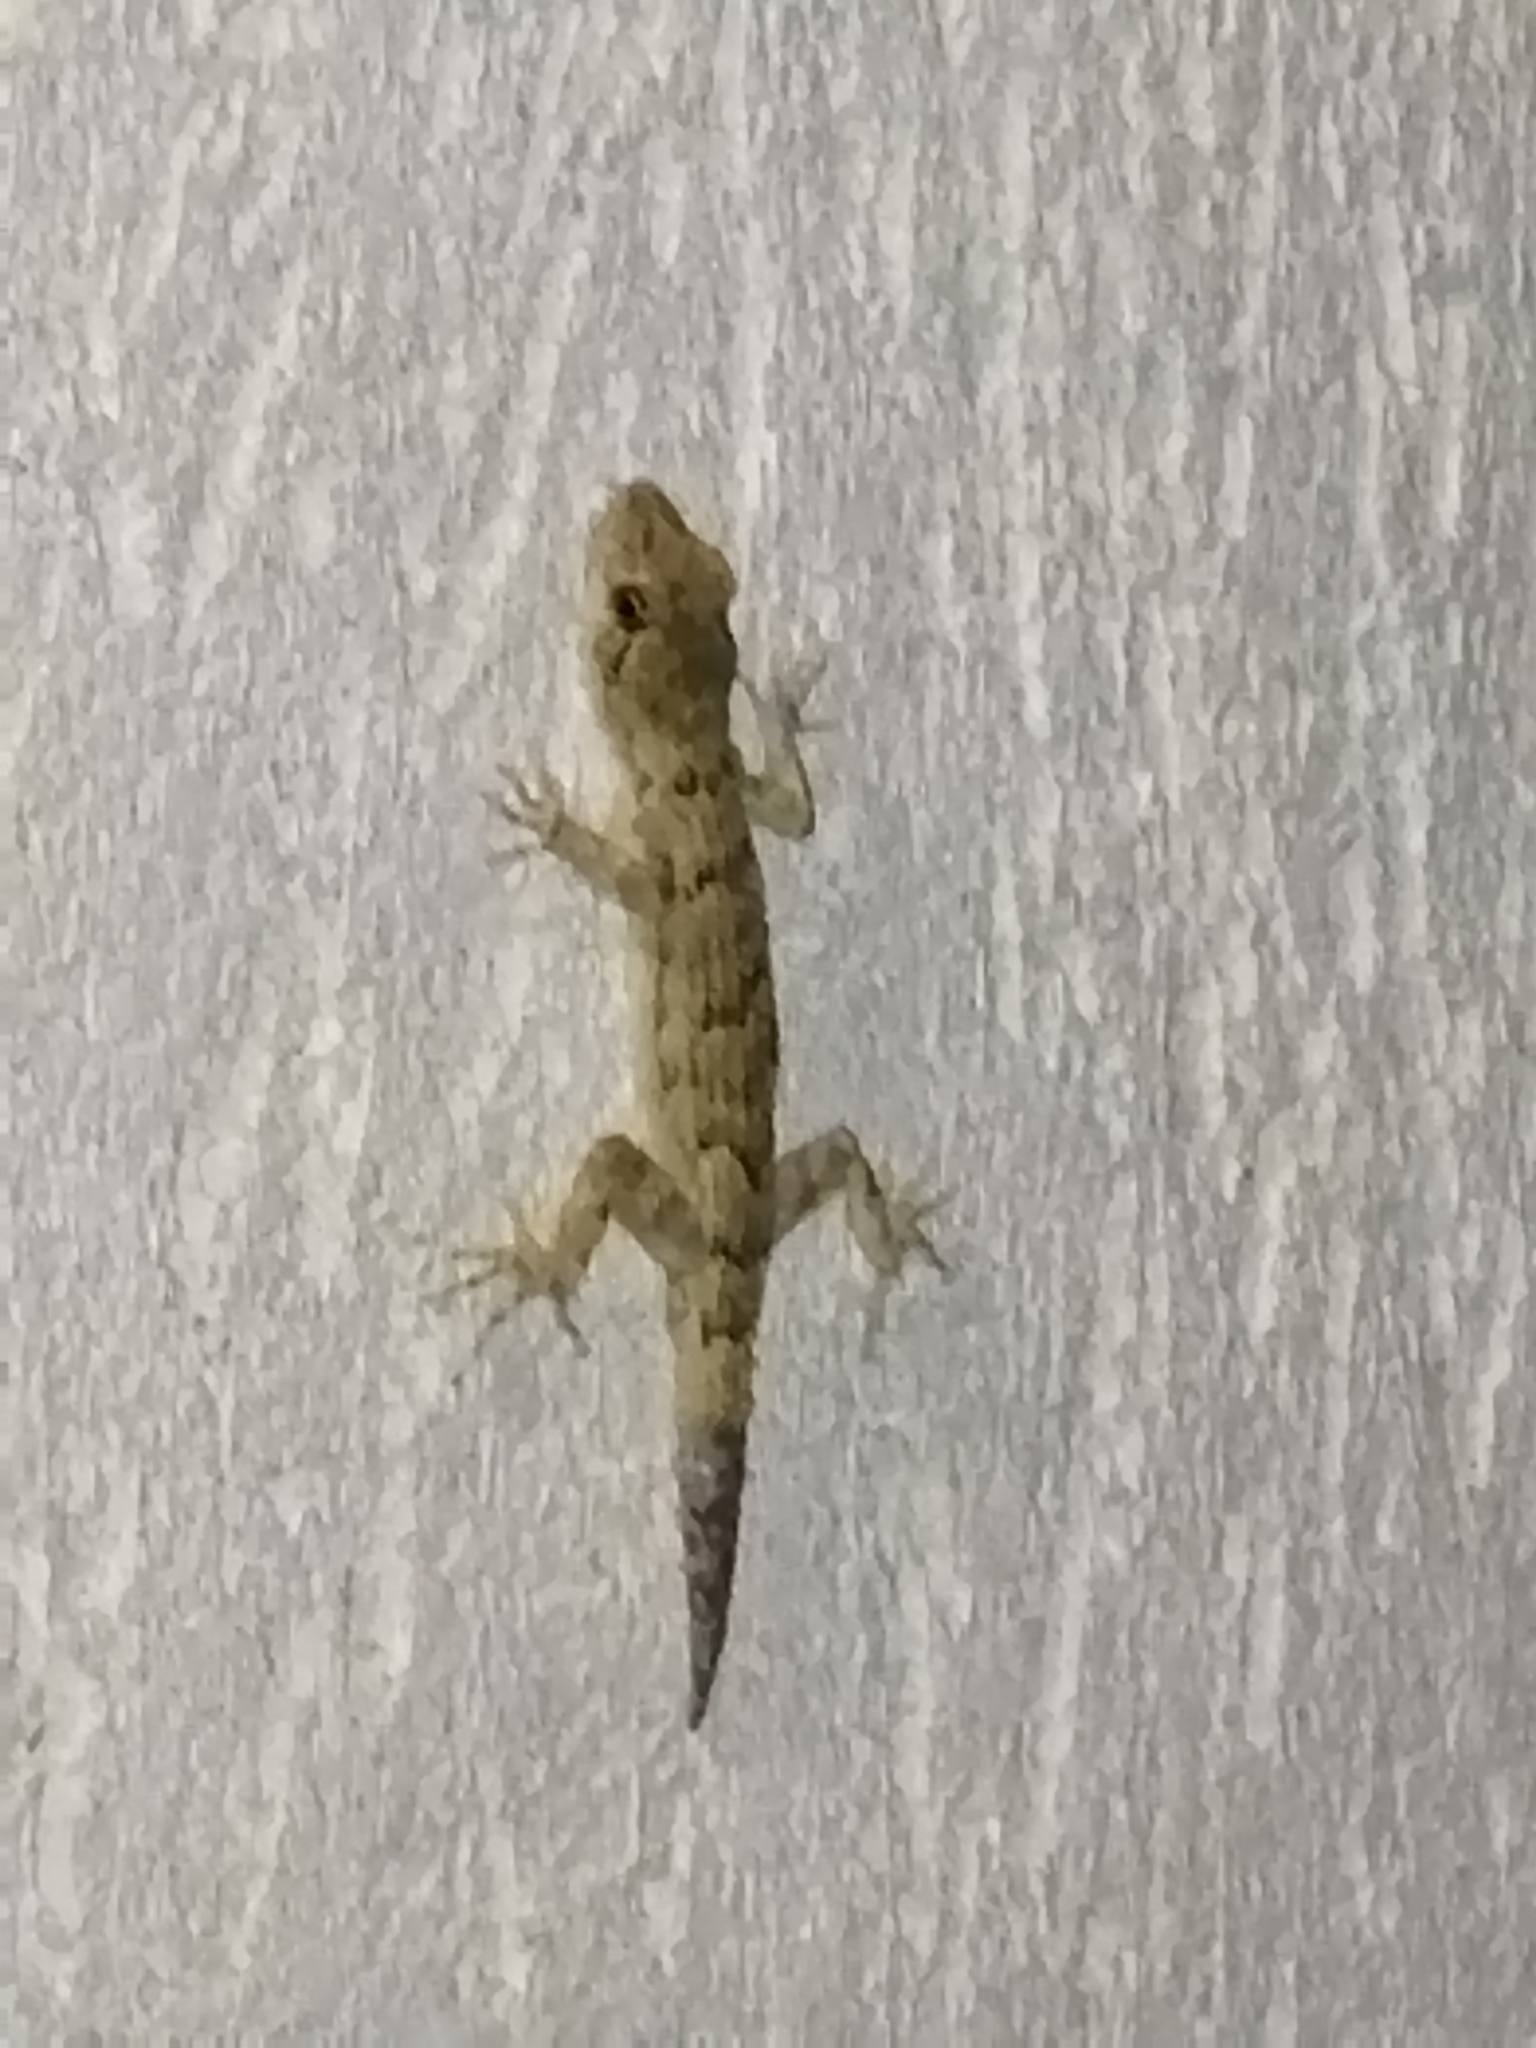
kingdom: Animalia
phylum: Chordata
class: Squamata
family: Gekkonidae
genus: Mediodactylus
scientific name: Mediodactylus kotschyi
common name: Kotschy's gecko
